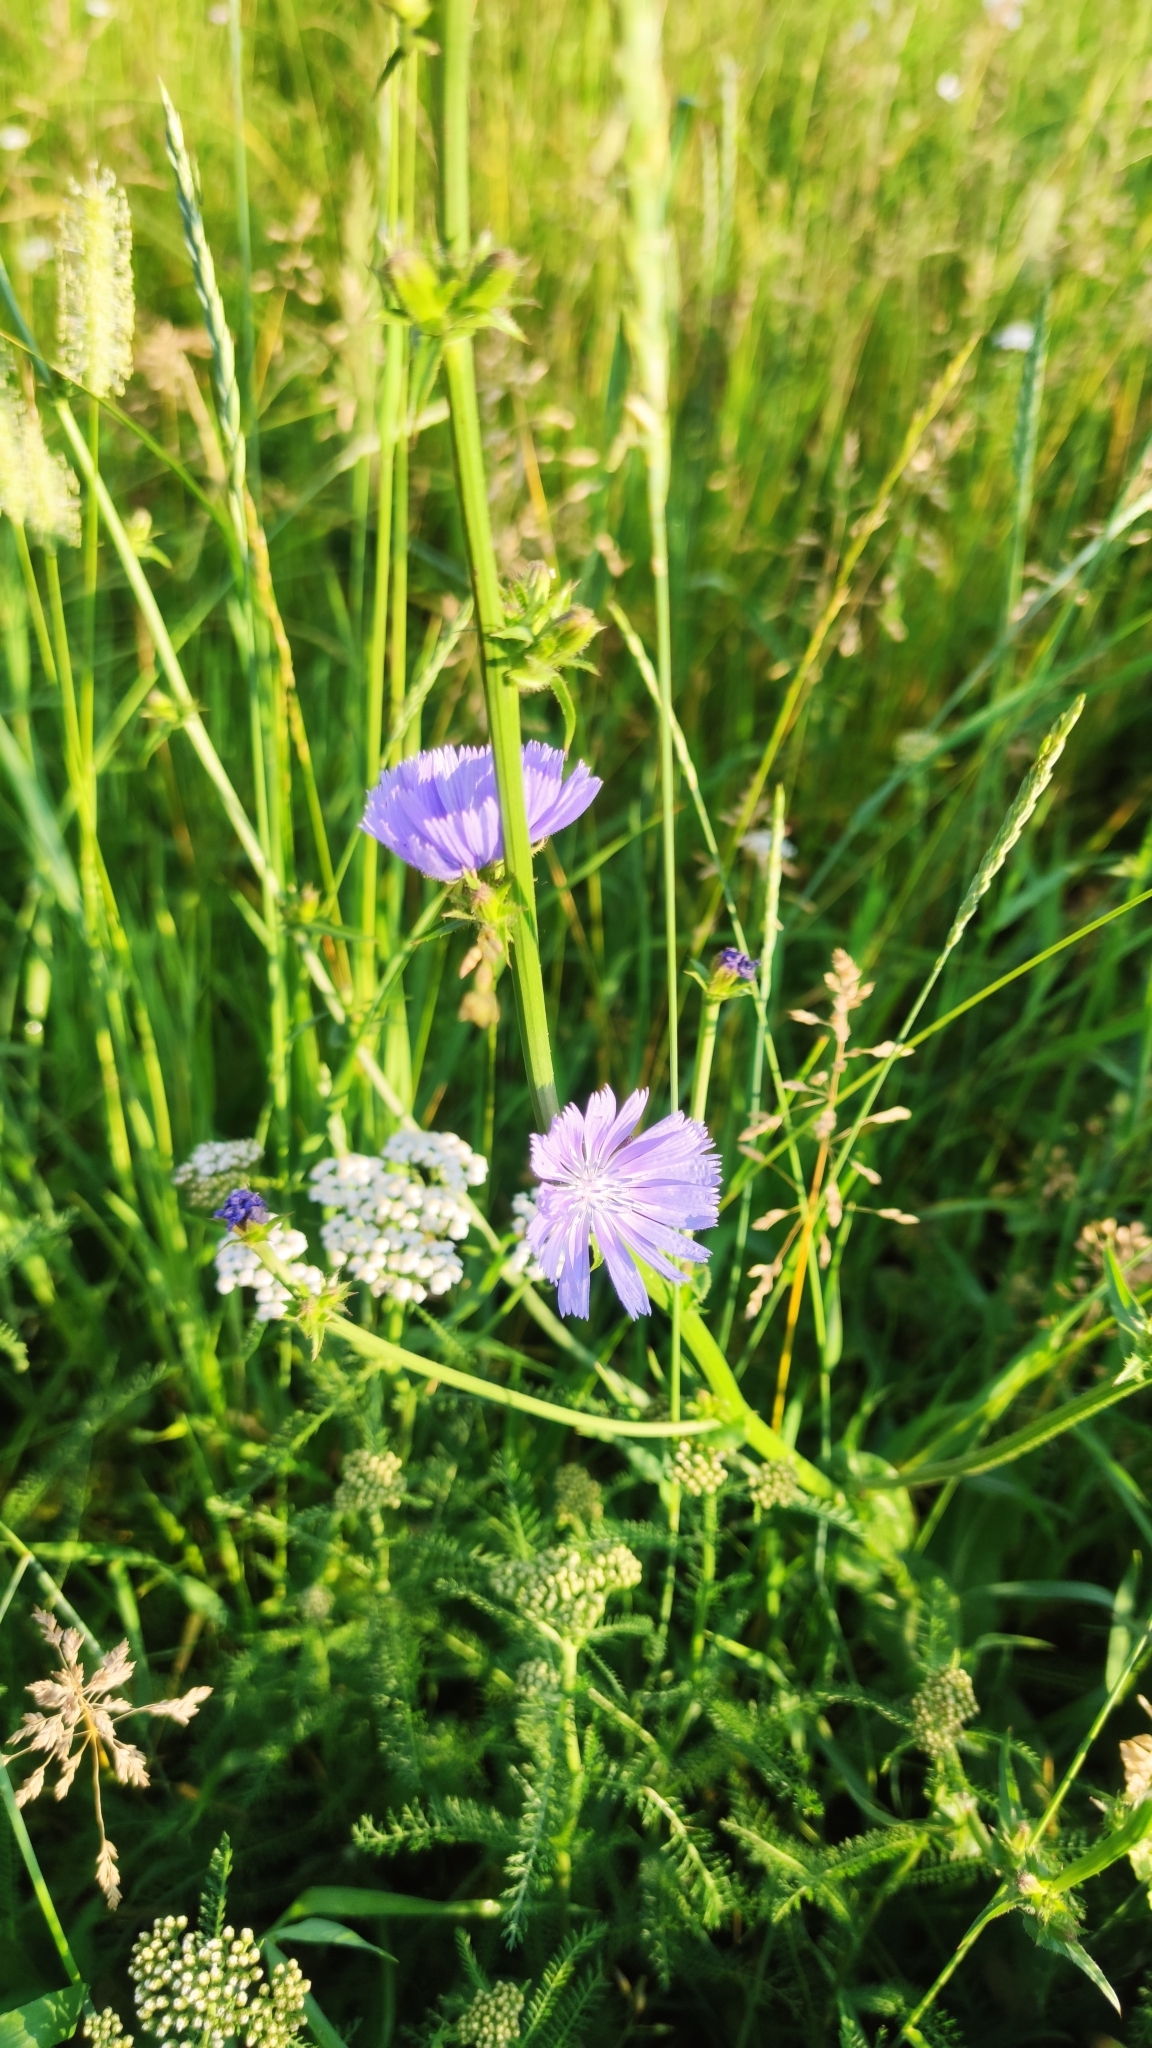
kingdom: Plantae
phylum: Tracheophyta
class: Magnoliopsida
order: Asterales
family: Asteraceae
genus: Cichorium
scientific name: Cichorium intybus
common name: Chicory
